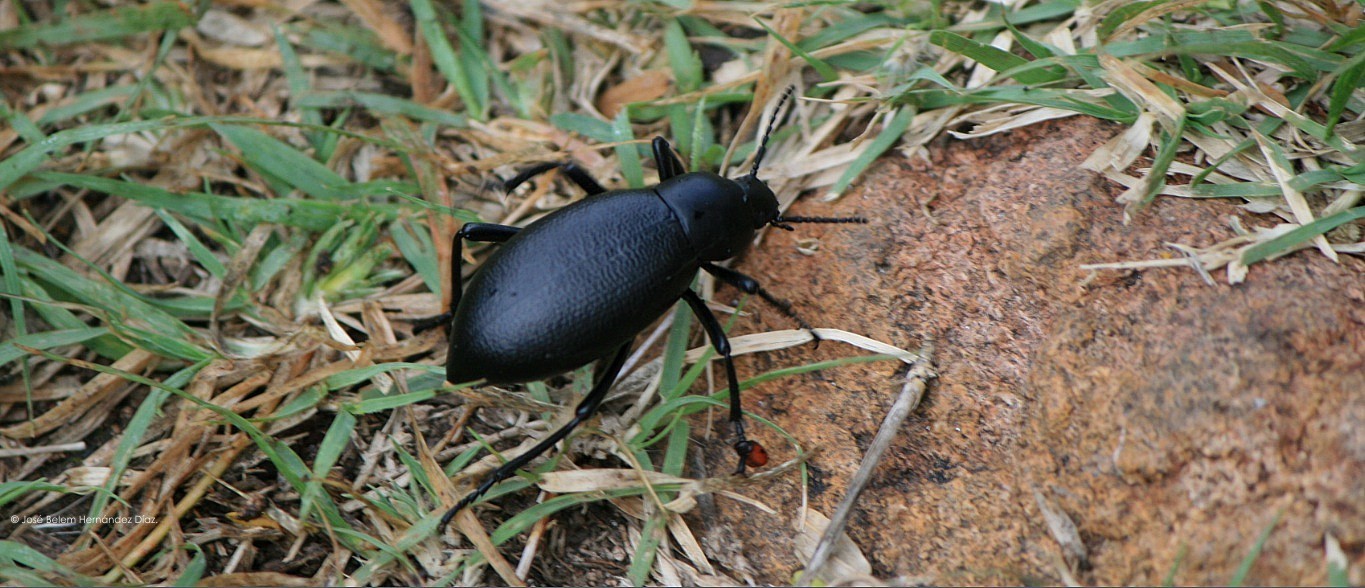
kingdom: Animalia
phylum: Arthropoda
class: Insecta
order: Coleoptera
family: Tenebrionidae
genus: Eleodes
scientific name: Eleodes glabricollis
